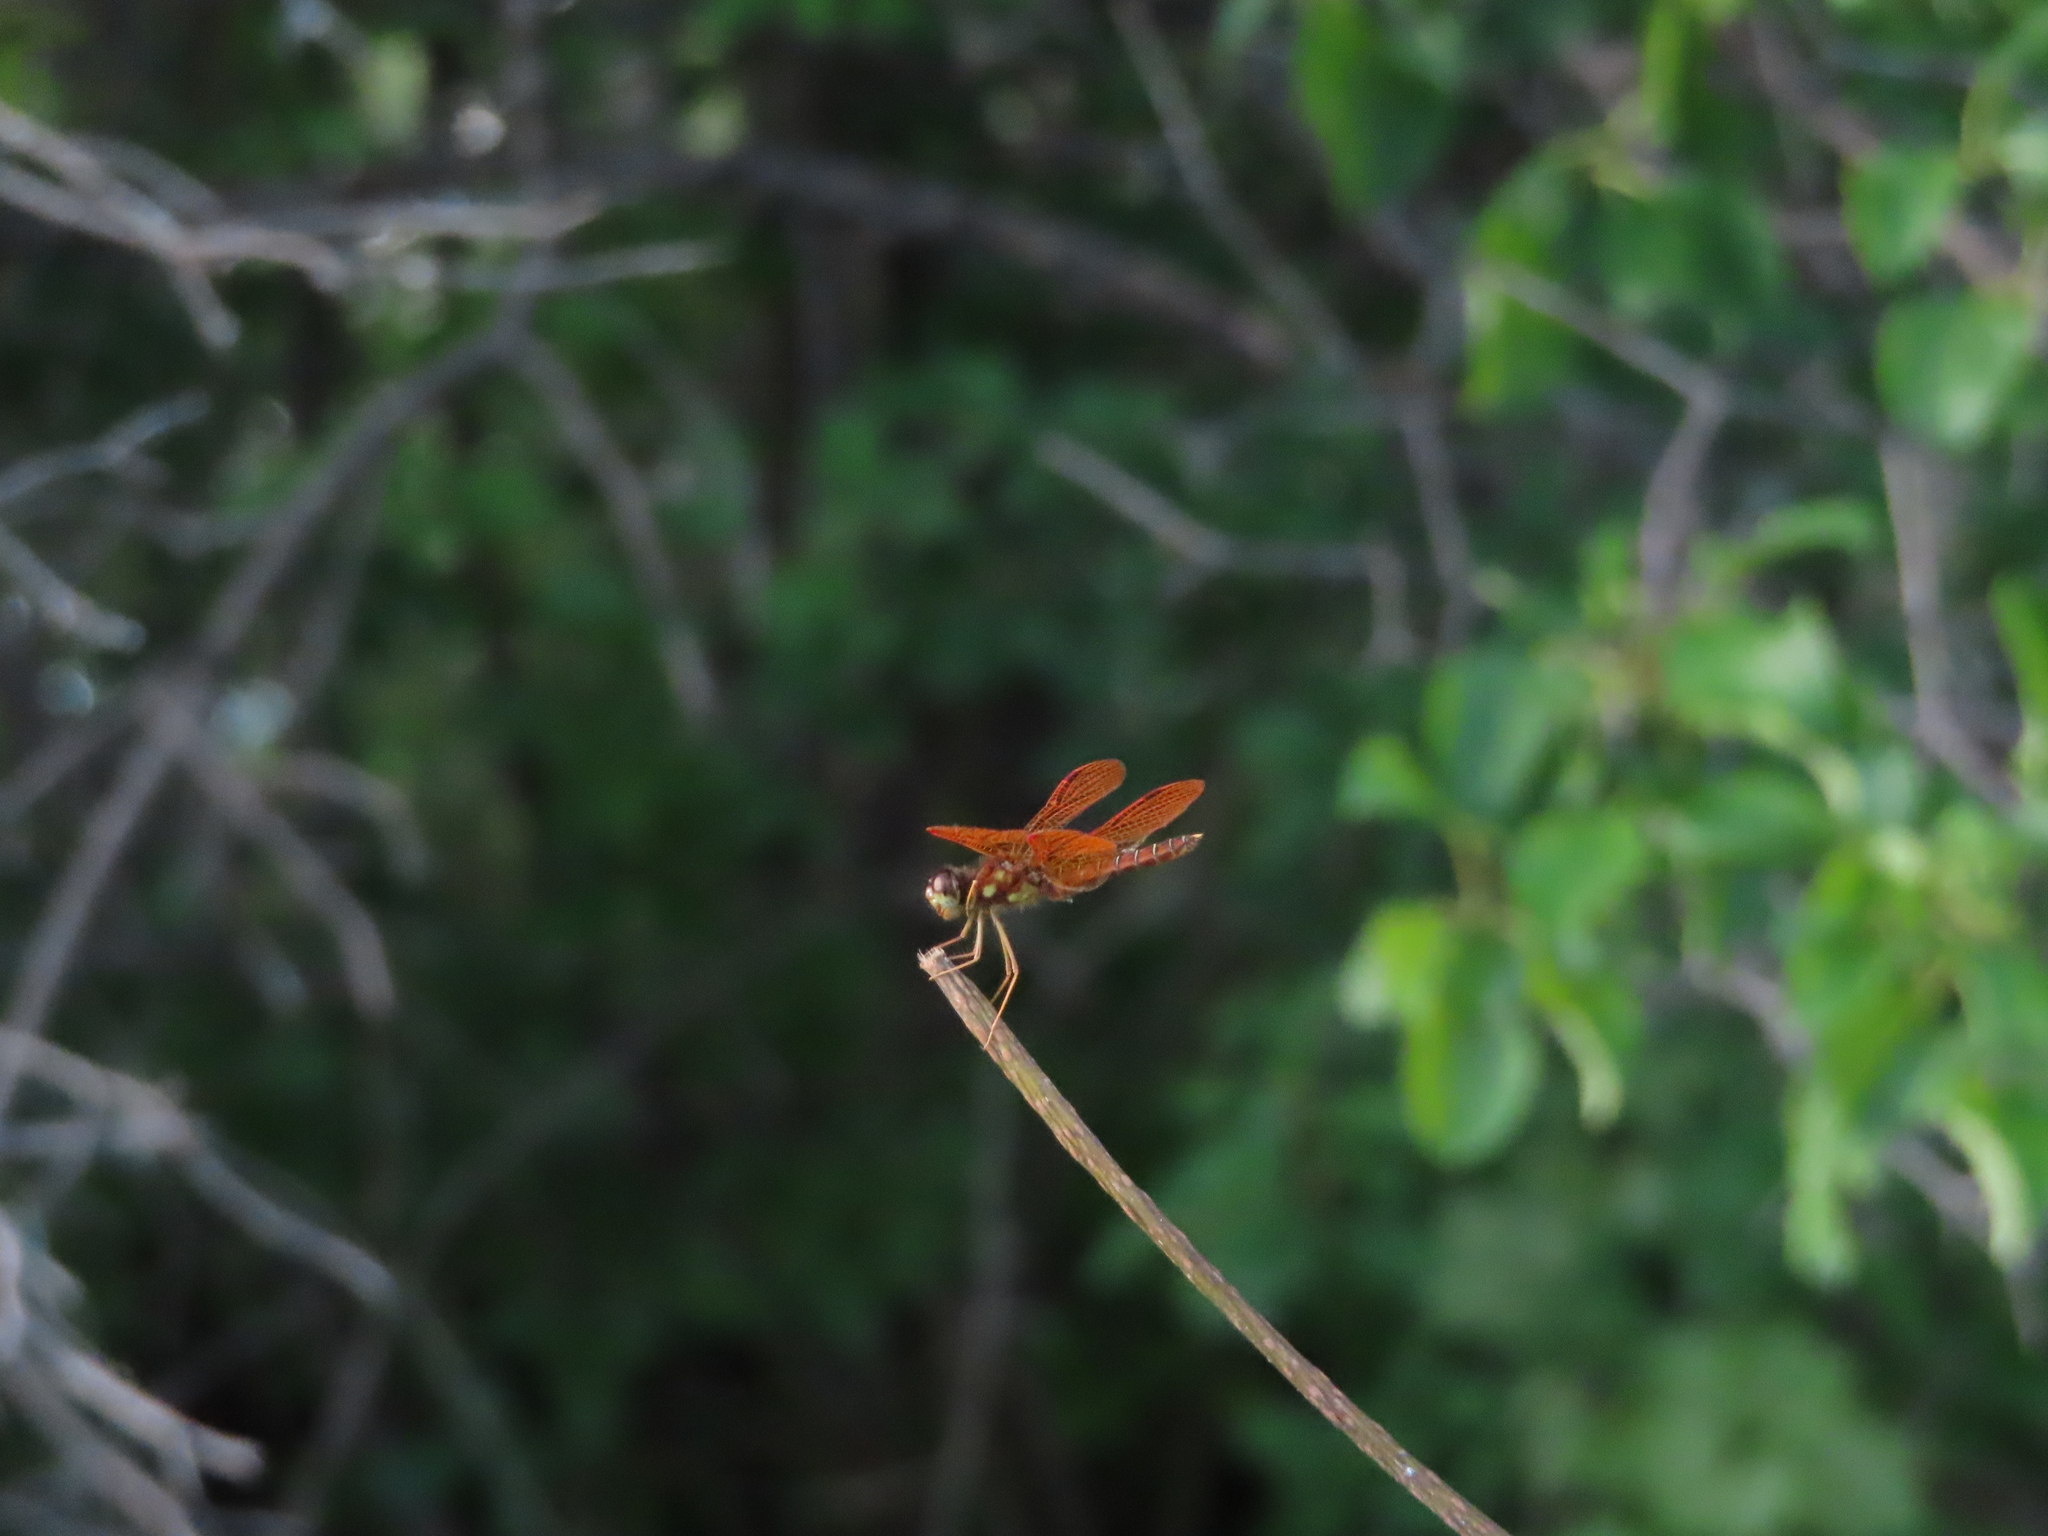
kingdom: Animalia
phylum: Arthropoda
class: Insecta
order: Odonata
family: Libellulidae
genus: Perithemis
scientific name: Perithemis tenera
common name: Eastern amberwing
